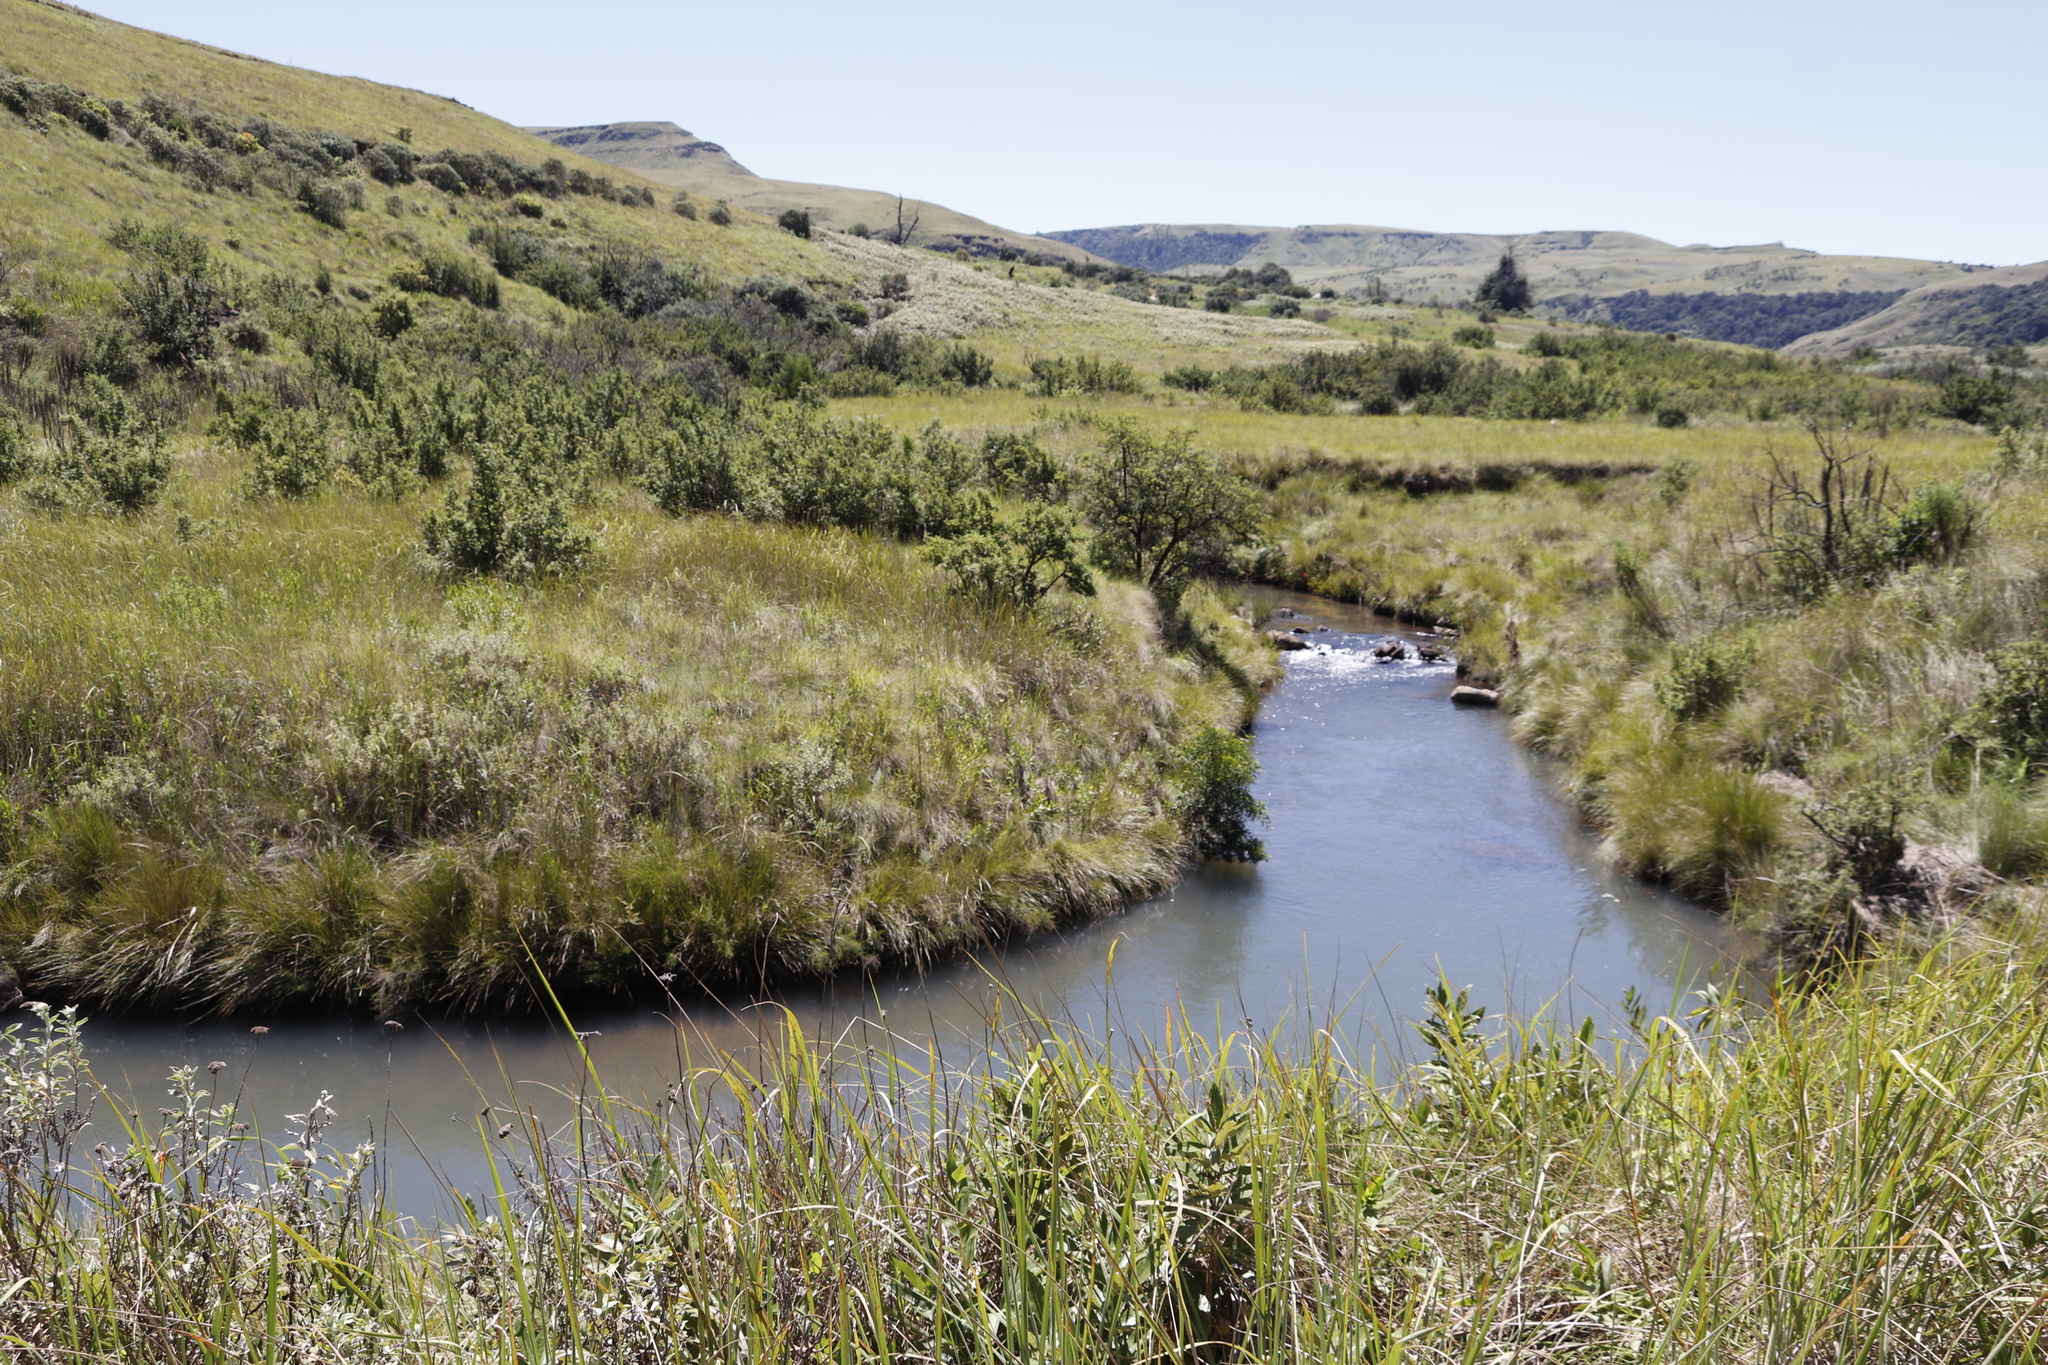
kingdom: Plantae
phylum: Tracheophyta
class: Magnoliopsida
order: Fabales
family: Fabaceae
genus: Acacia
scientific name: Acacia melanoxylon
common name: Blackwood
